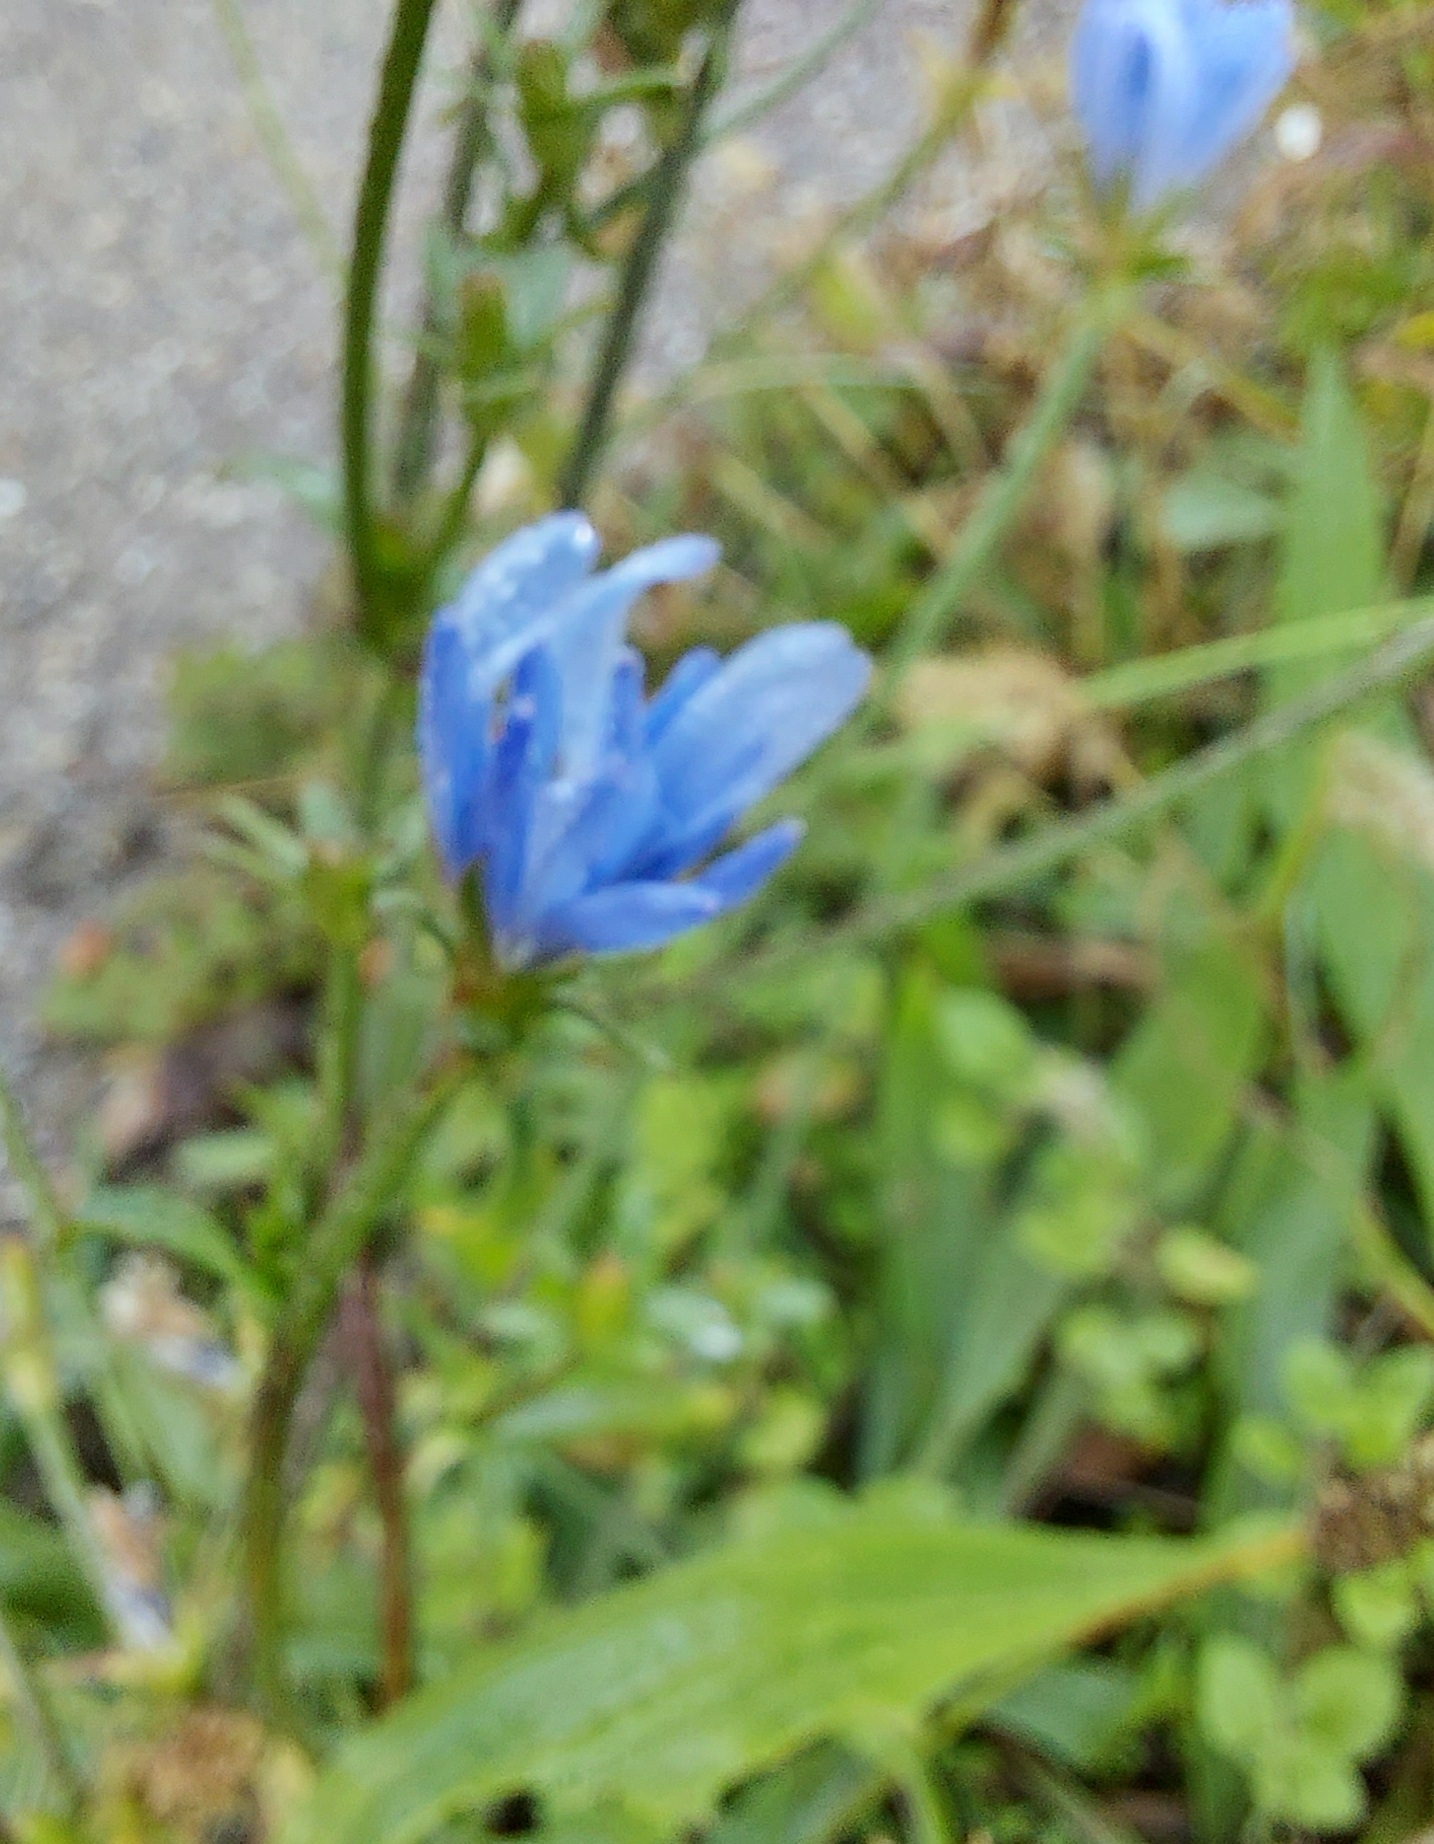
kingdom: Plantae
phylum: Tracheophyta
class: Magnoliopsida
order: Asterales
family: Asteraceae
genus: Cichorium
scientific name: Cichorium intybus
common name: Chicory
